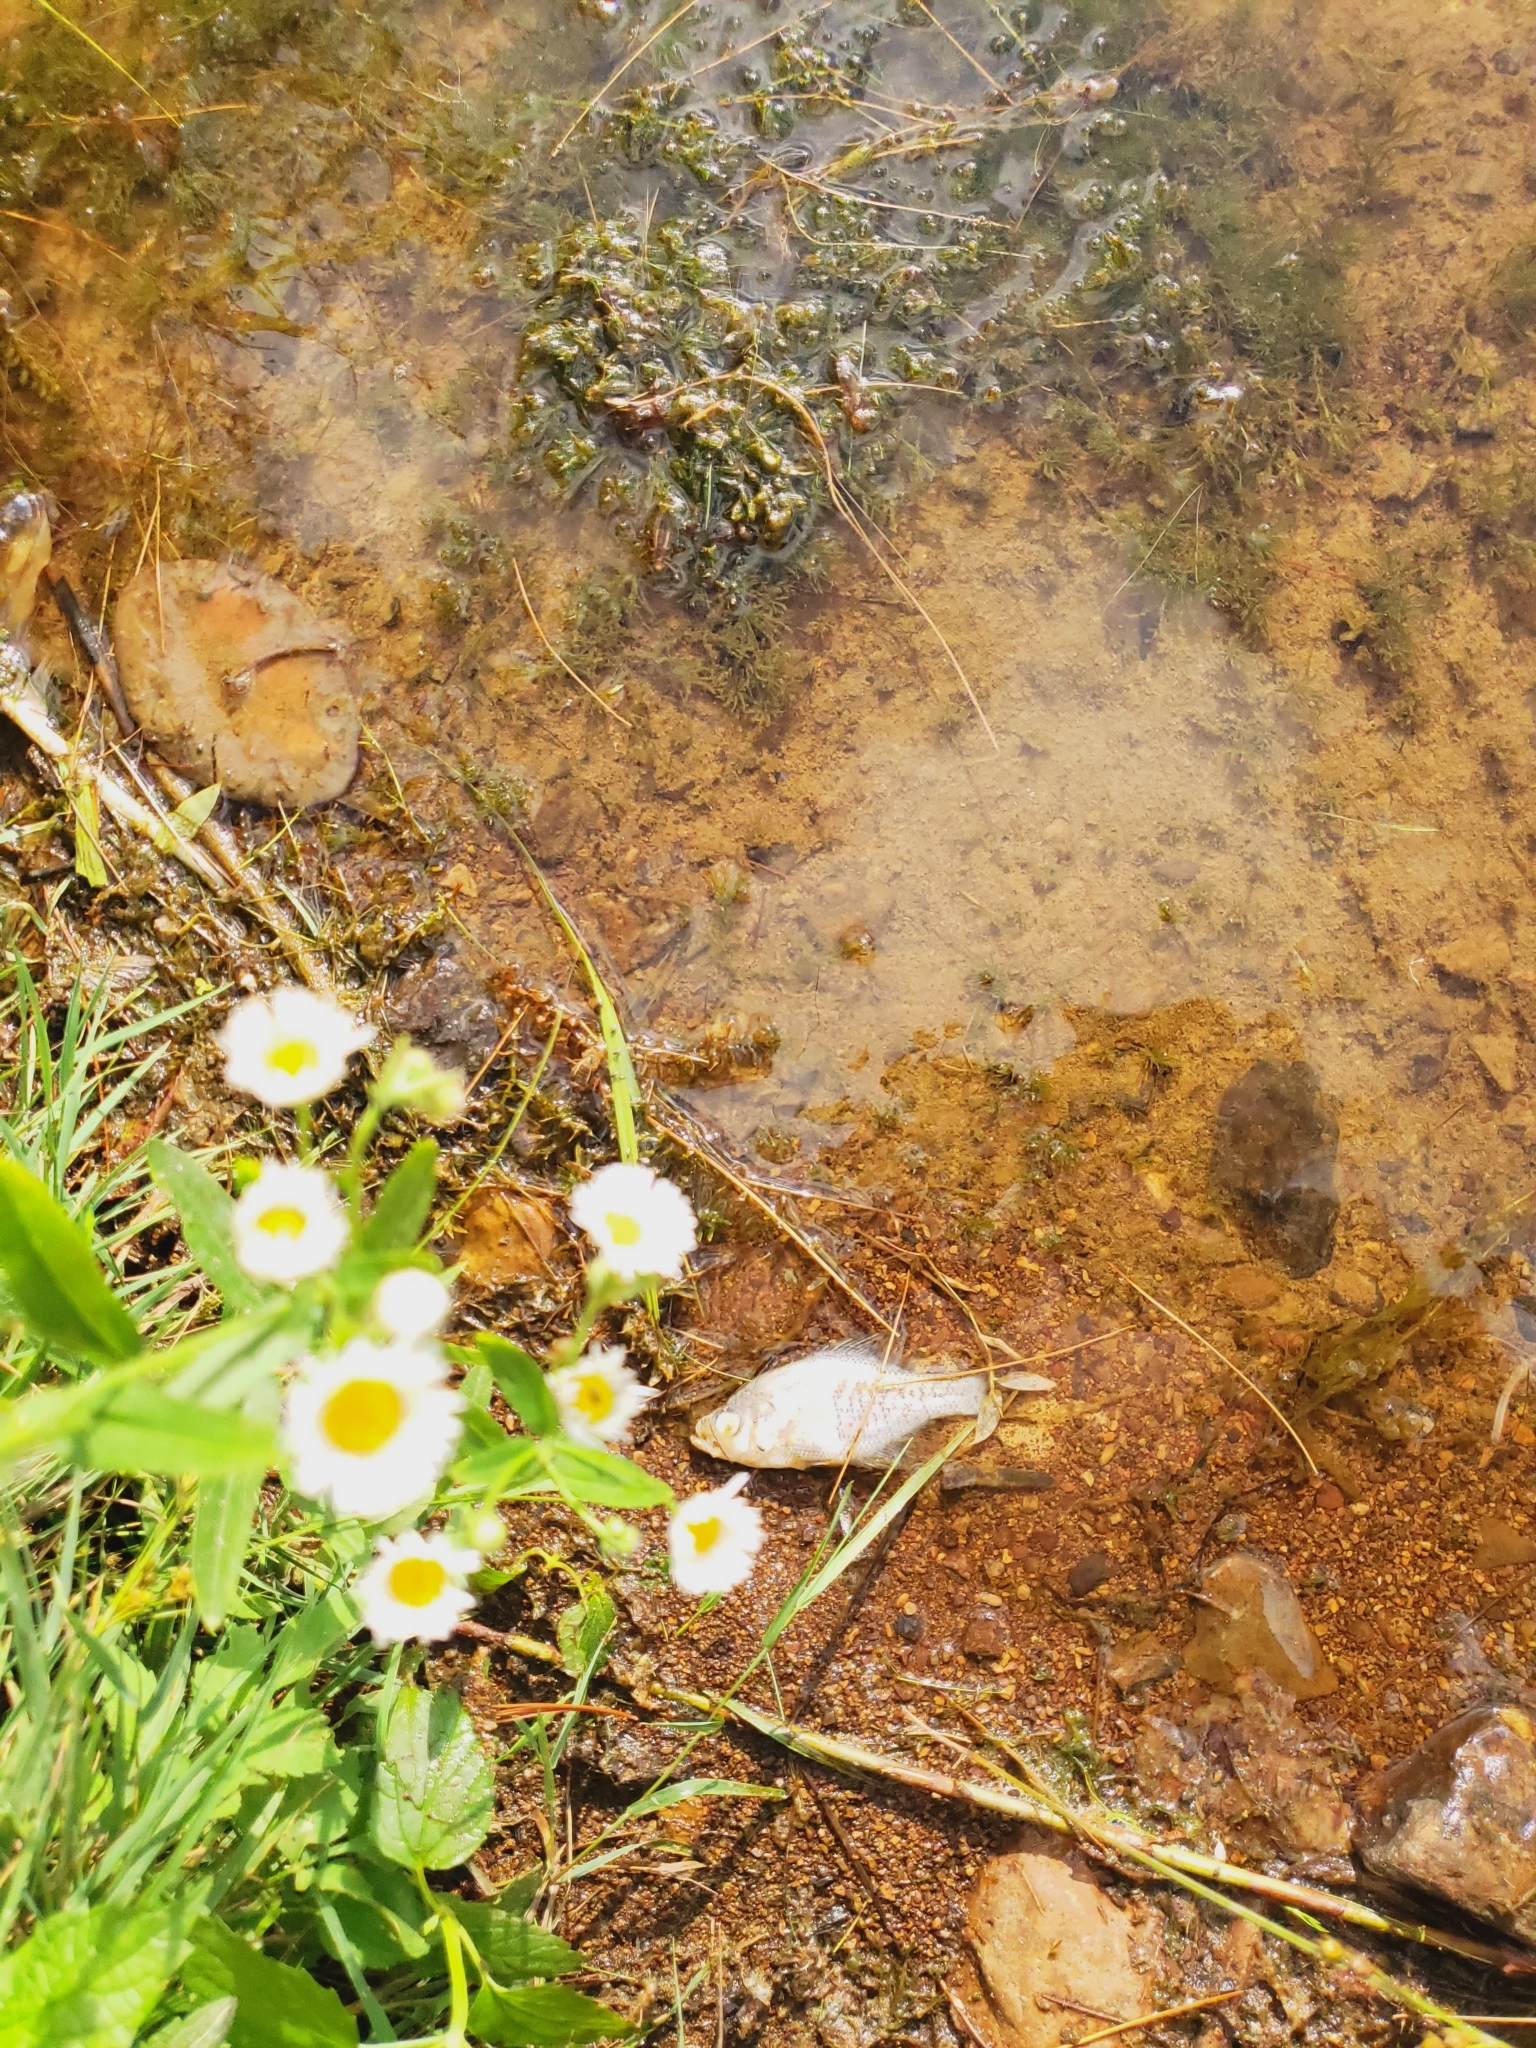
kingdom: Animalia
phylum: Chordata
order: Perciformes
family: Centrarchidae
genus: Pomoxis
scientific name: Pomoxis annularis
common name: White crappie
